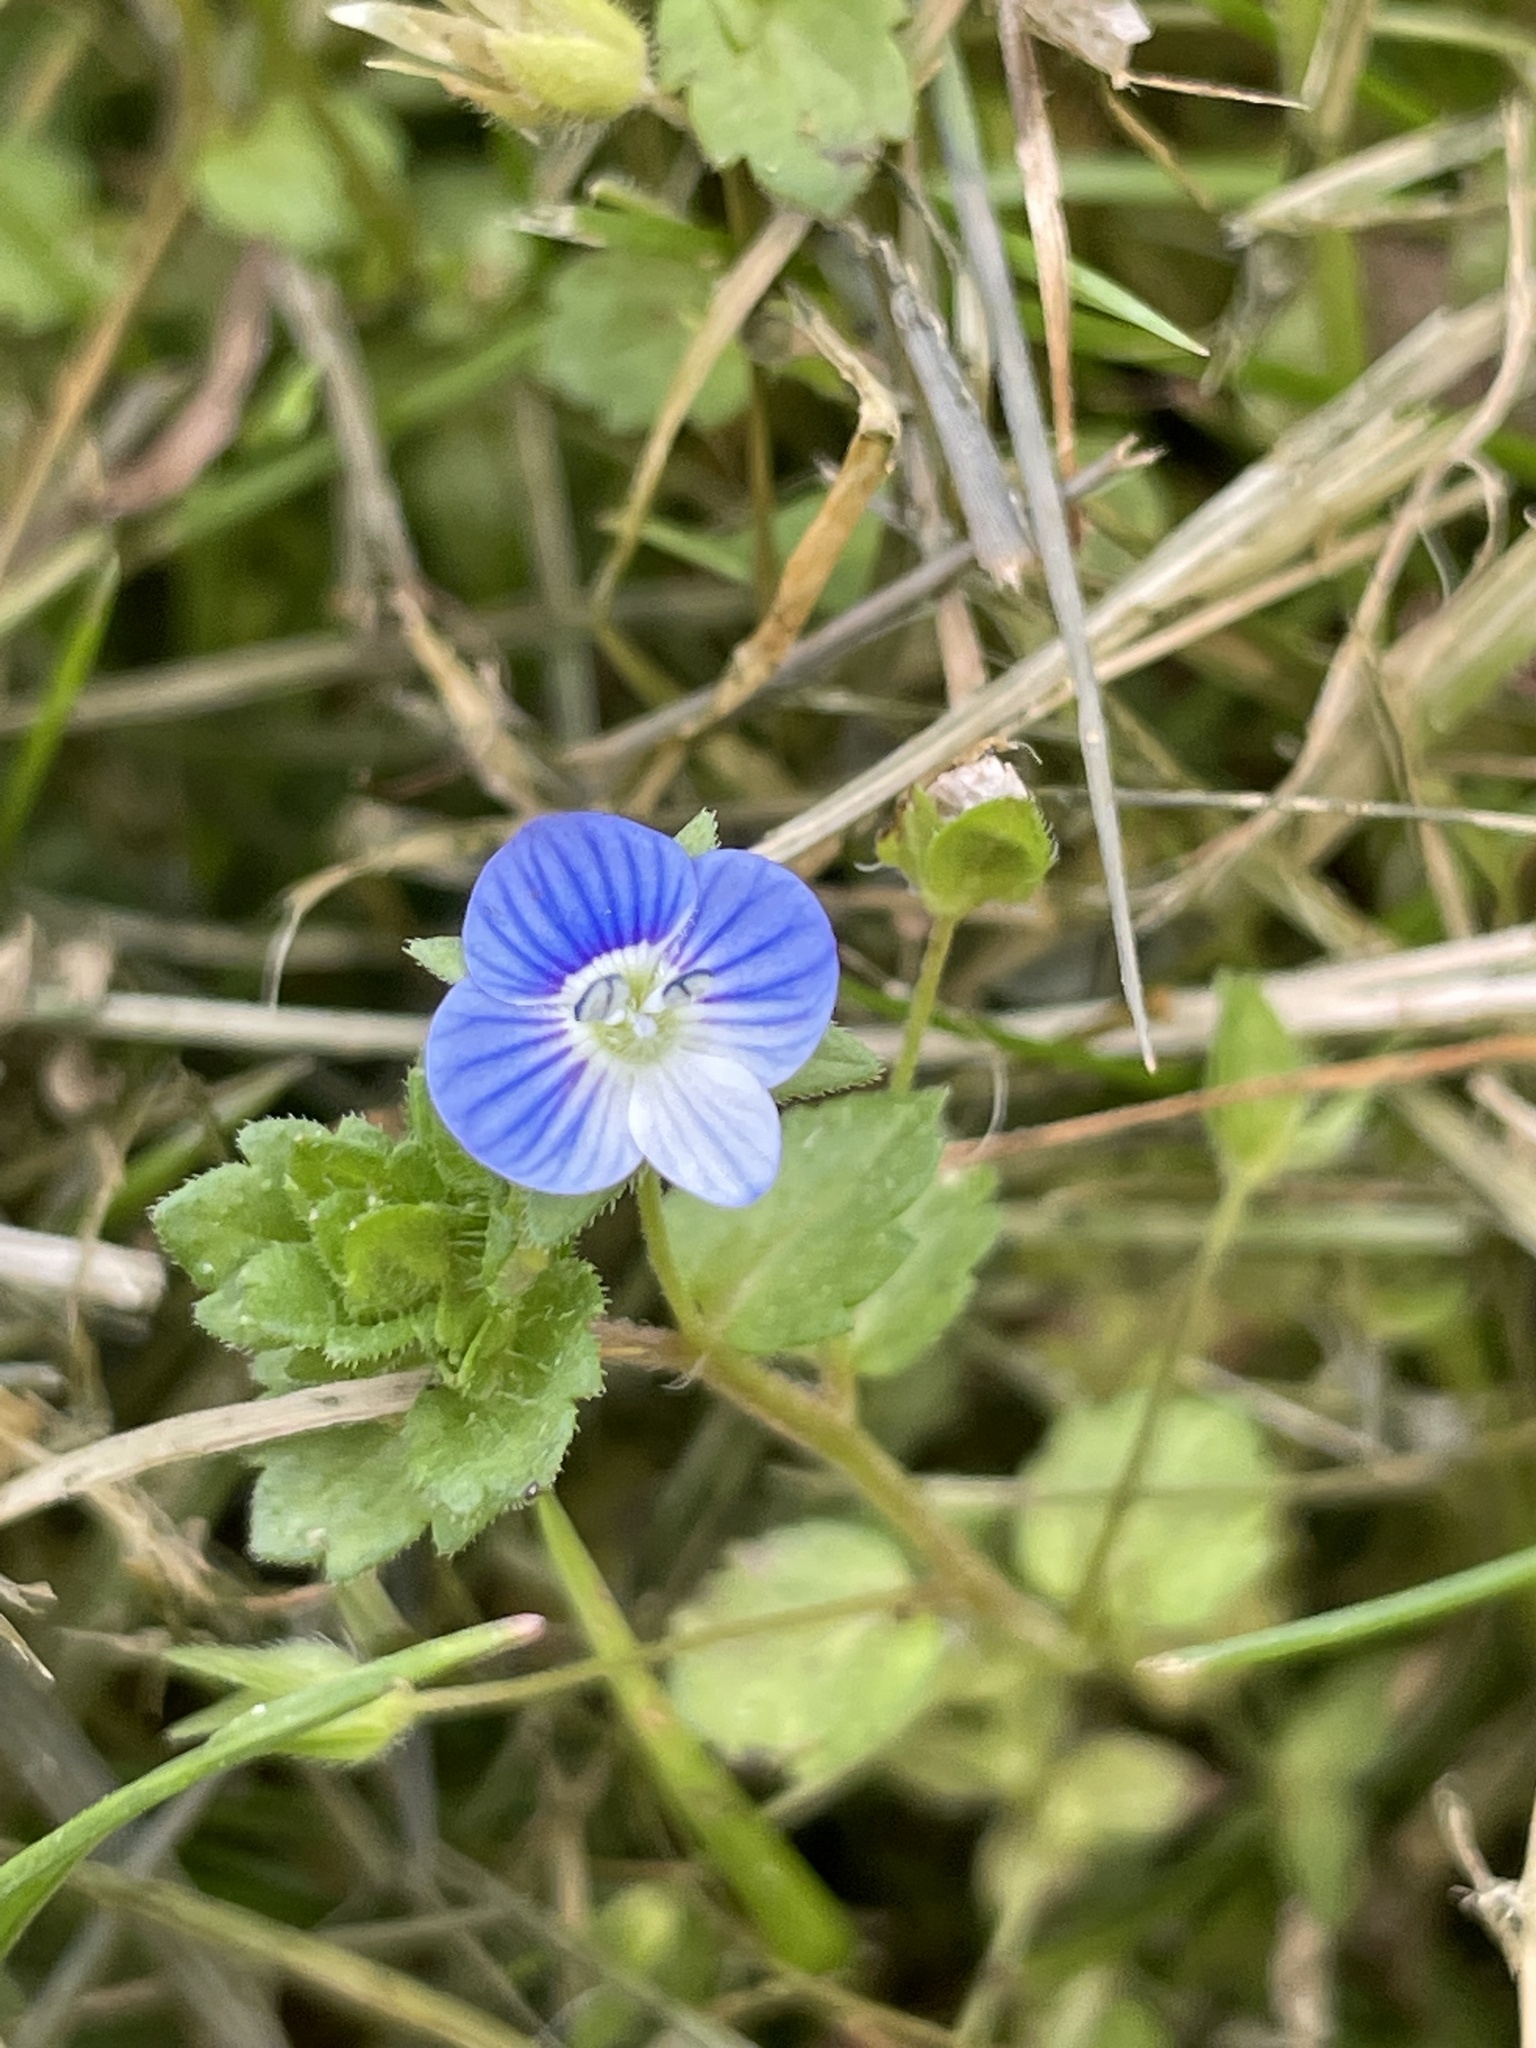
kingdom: Plantae
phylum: Tracheophyta
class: Magnoliopsida
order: Lamiales
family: Plantaginaceae
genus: Veronica
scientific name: Veronica persica
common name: Common field-speedwell
